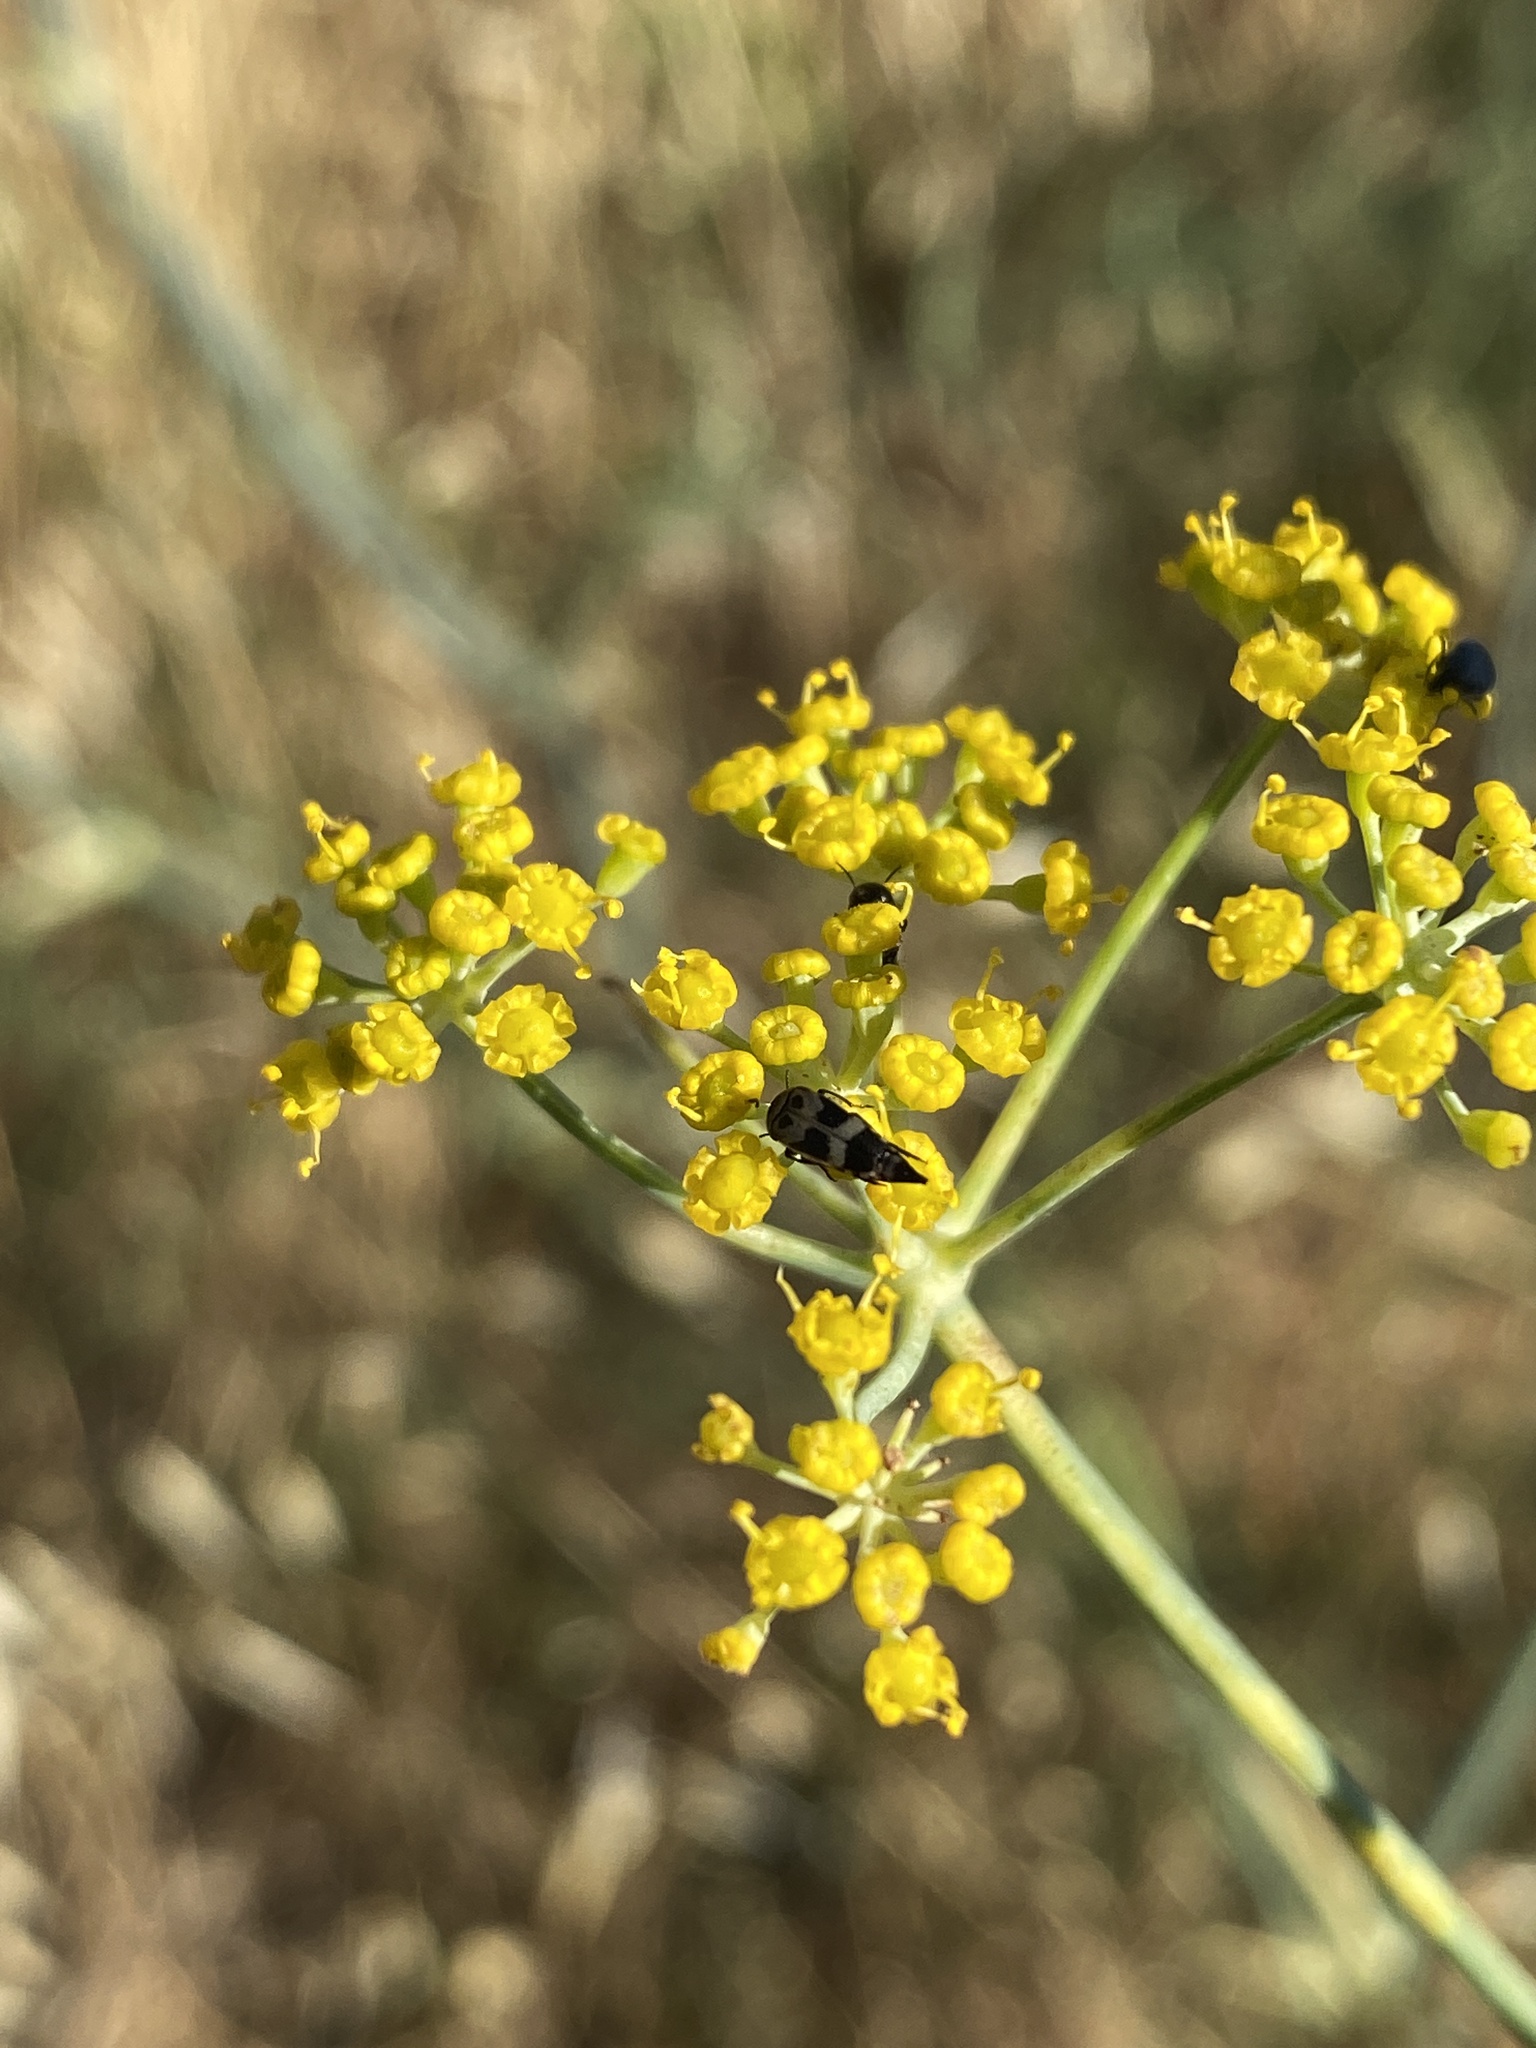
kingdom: Plantae
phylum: Tracheophyta
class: Magnoliopsida
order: Apiales
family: Apiaceae
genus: Foeniculum
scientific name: Foeniculum vulgare
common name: Fennel
